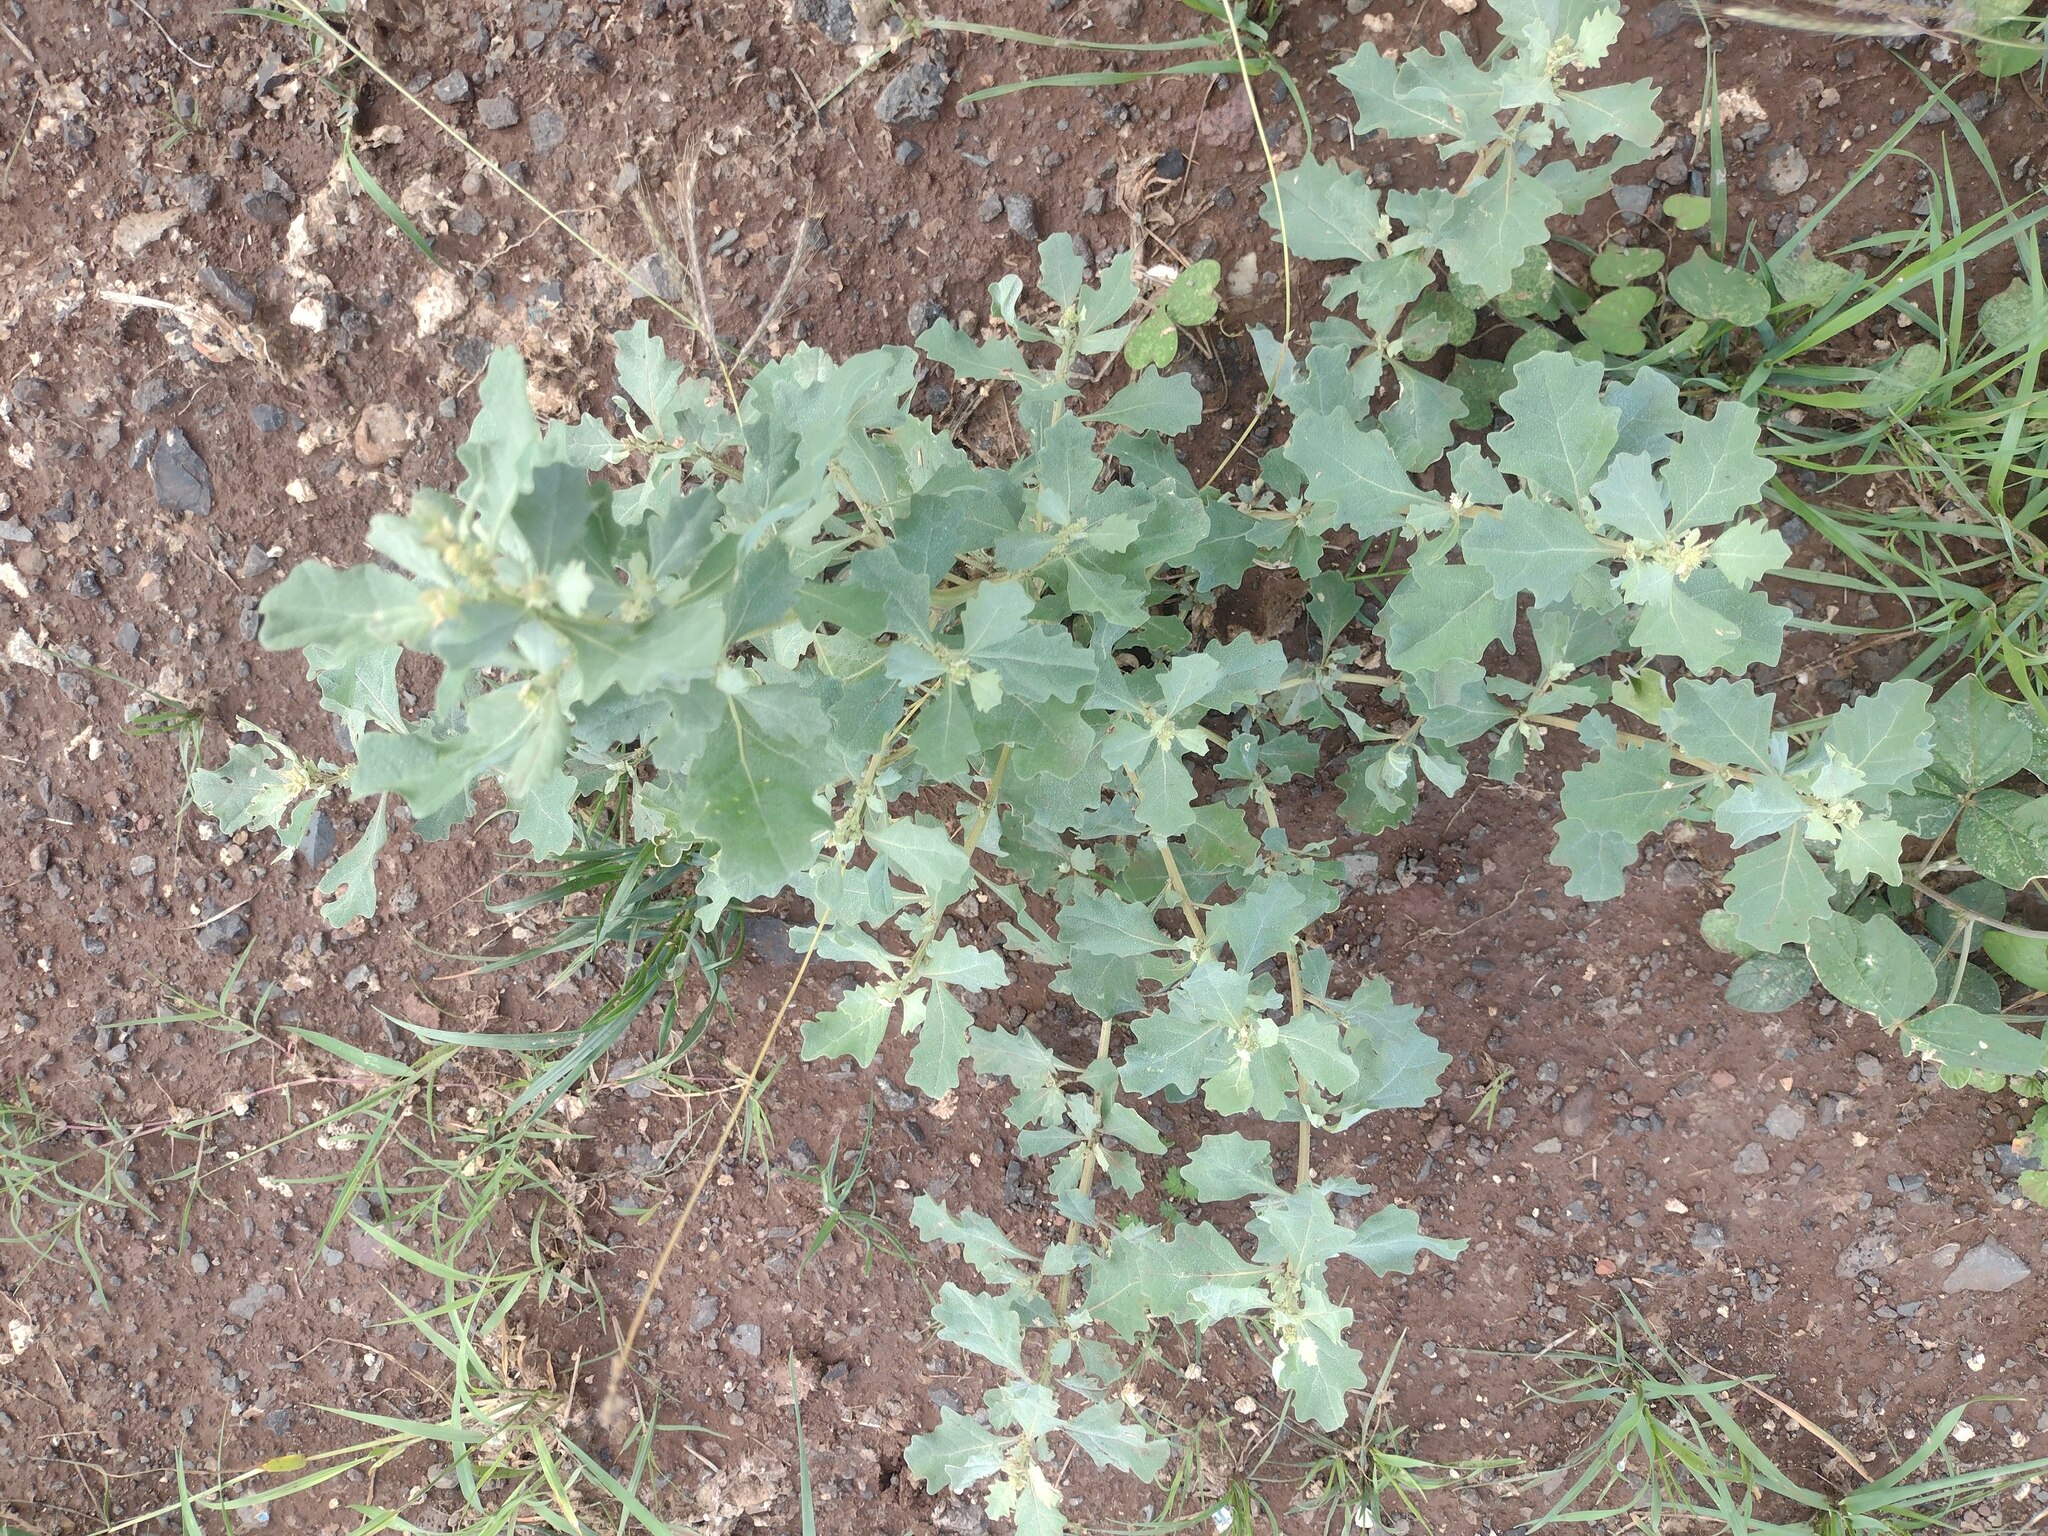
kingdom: Plantae
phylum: Tracheophyta
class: Magnoliopsida
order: Caryophyllales
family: Amaranthaceae
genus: Atriplex
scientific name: Atriplex muelleri
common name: Mueller's saltbush
